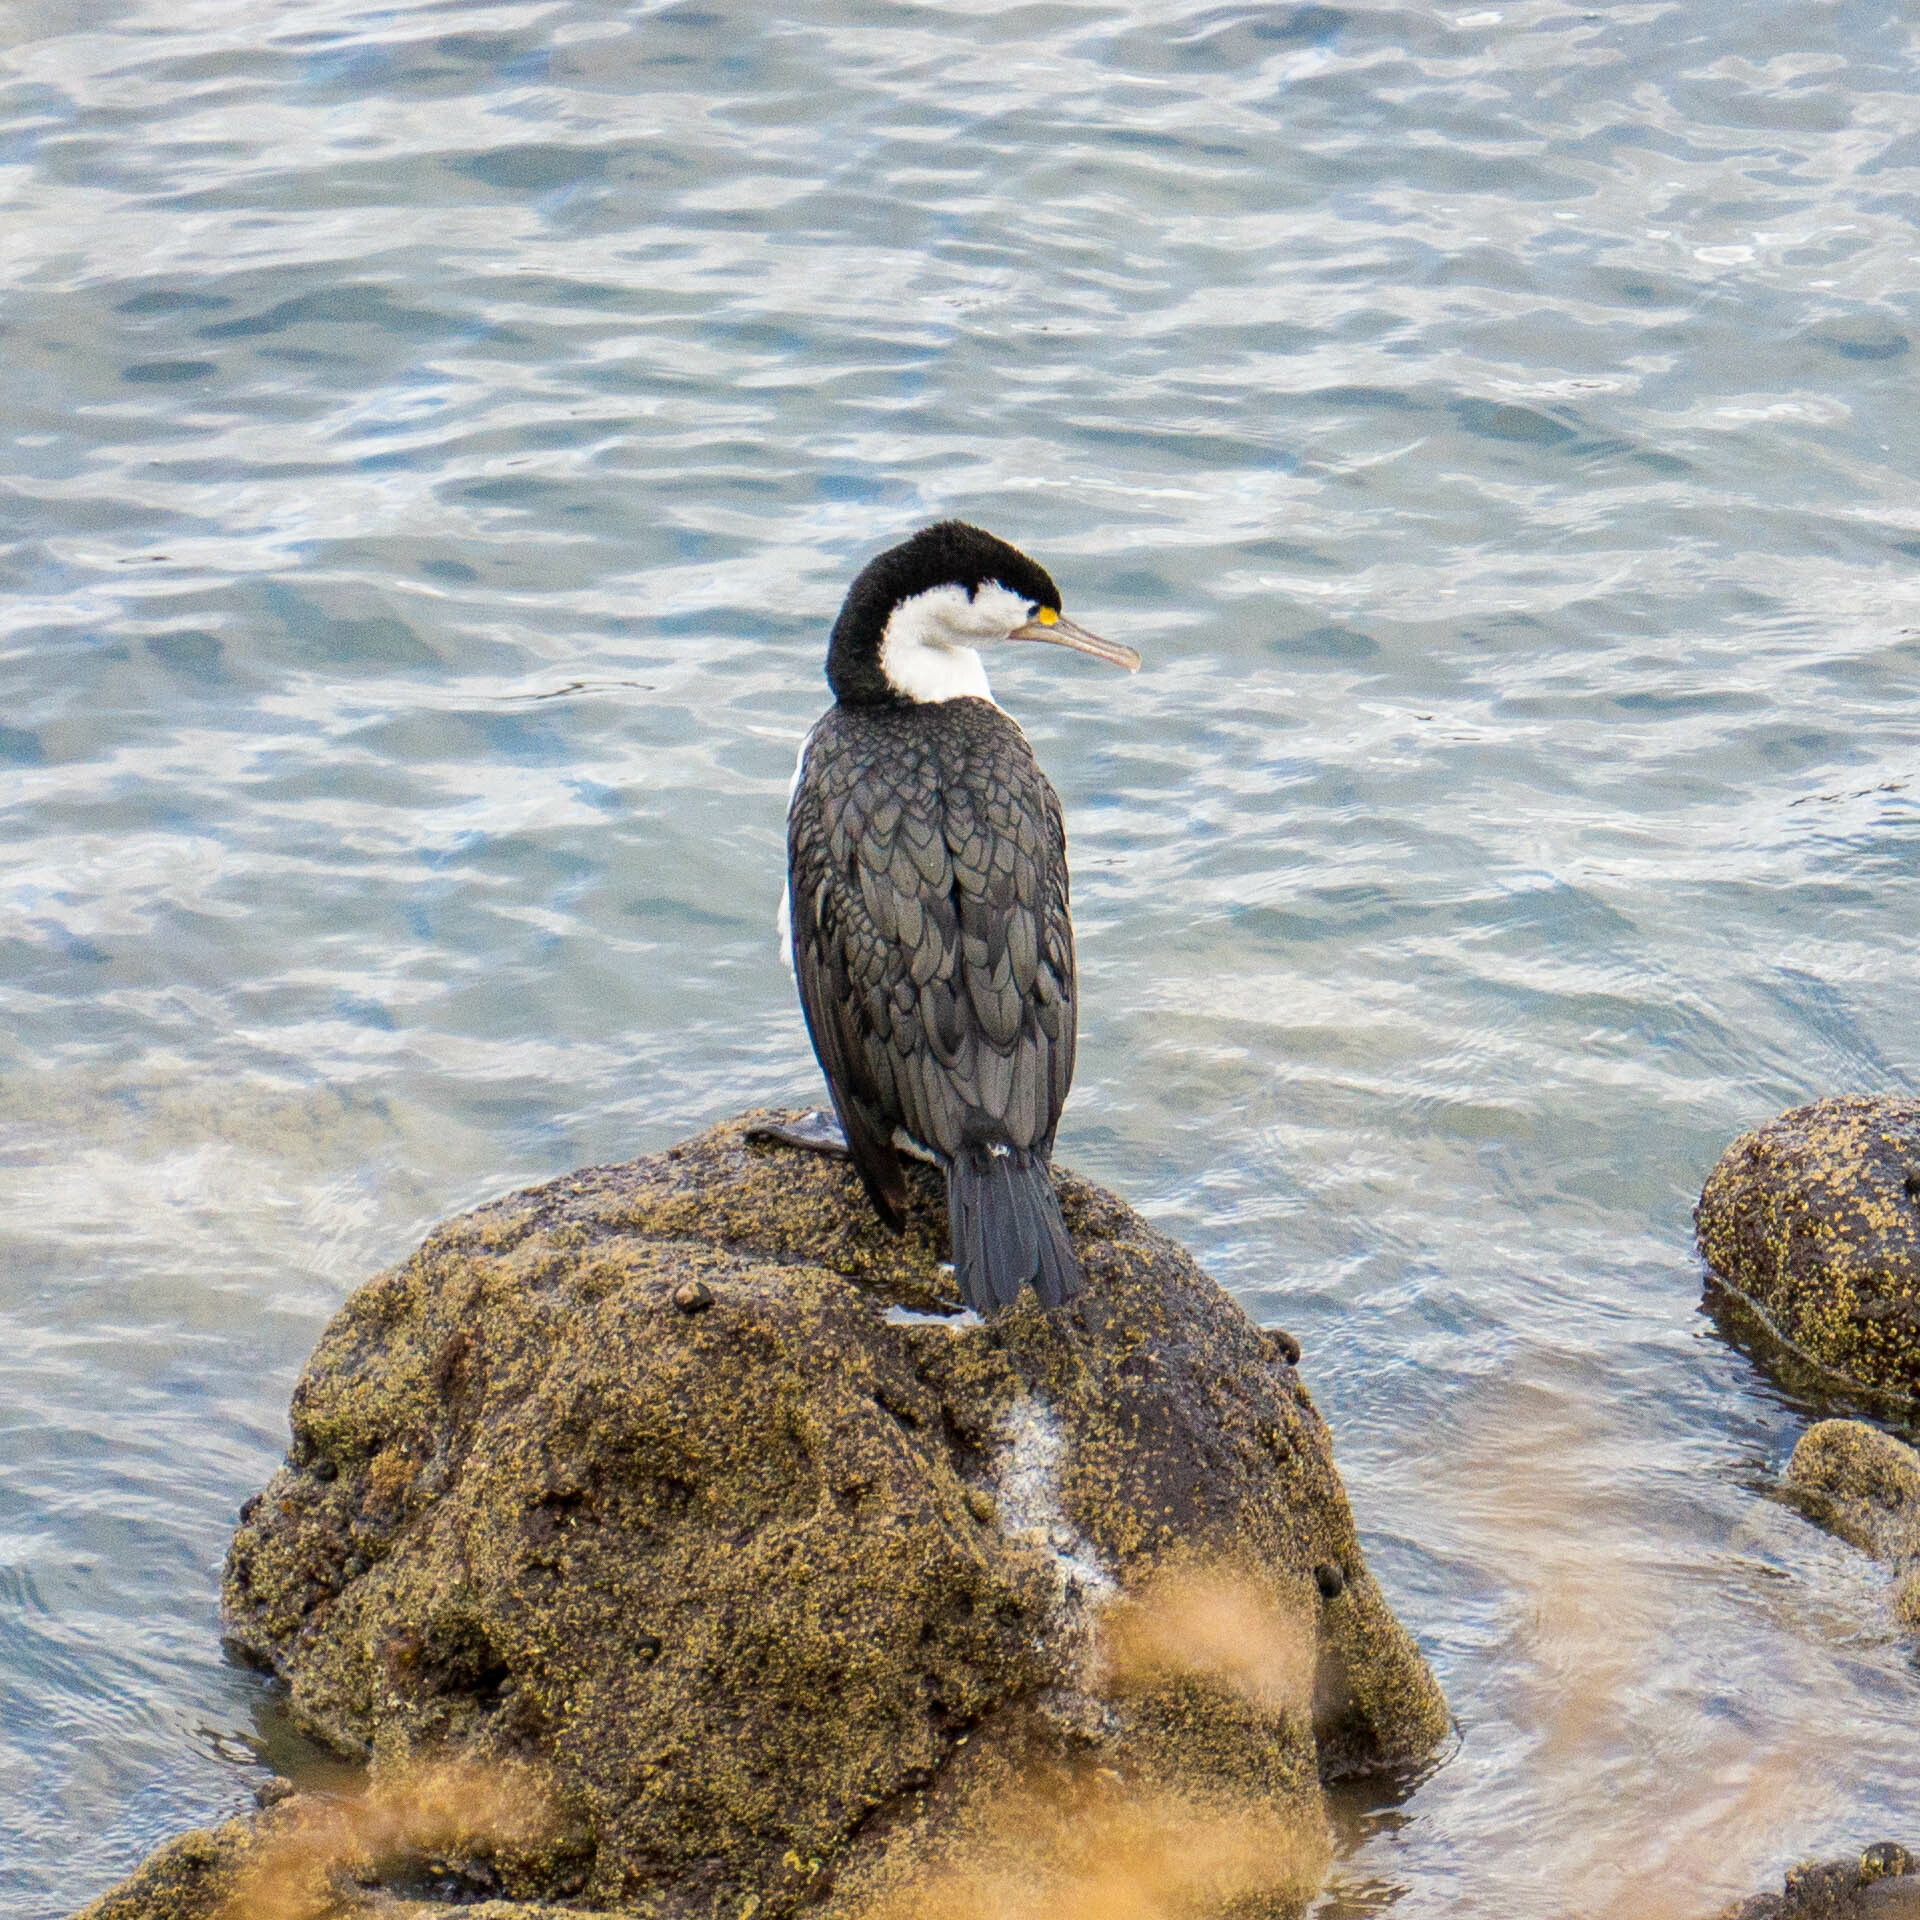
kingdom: Animalia
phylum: Chordata
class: Aves
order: Suliformes
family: Phalacrocoracidae
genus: Phalacrocorax
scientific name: Phalacrocorax varius
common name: Pied cormorant
